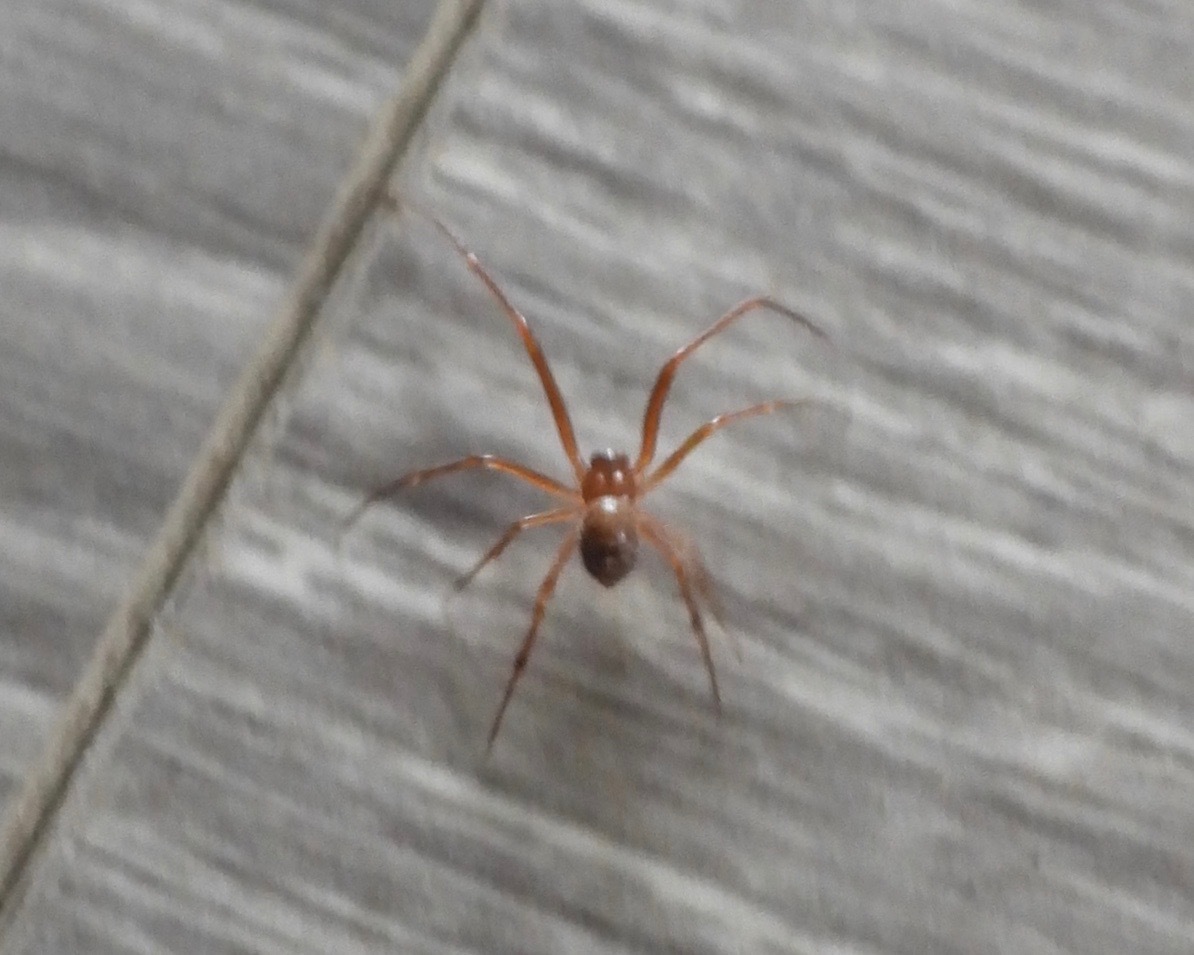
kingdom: Animalia
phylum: Arthropoda
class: Arachnida
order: Araneae
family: Theridiidae
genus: Nesticodes
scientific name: Nesticodes rufipes
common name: Cobweb spiders
